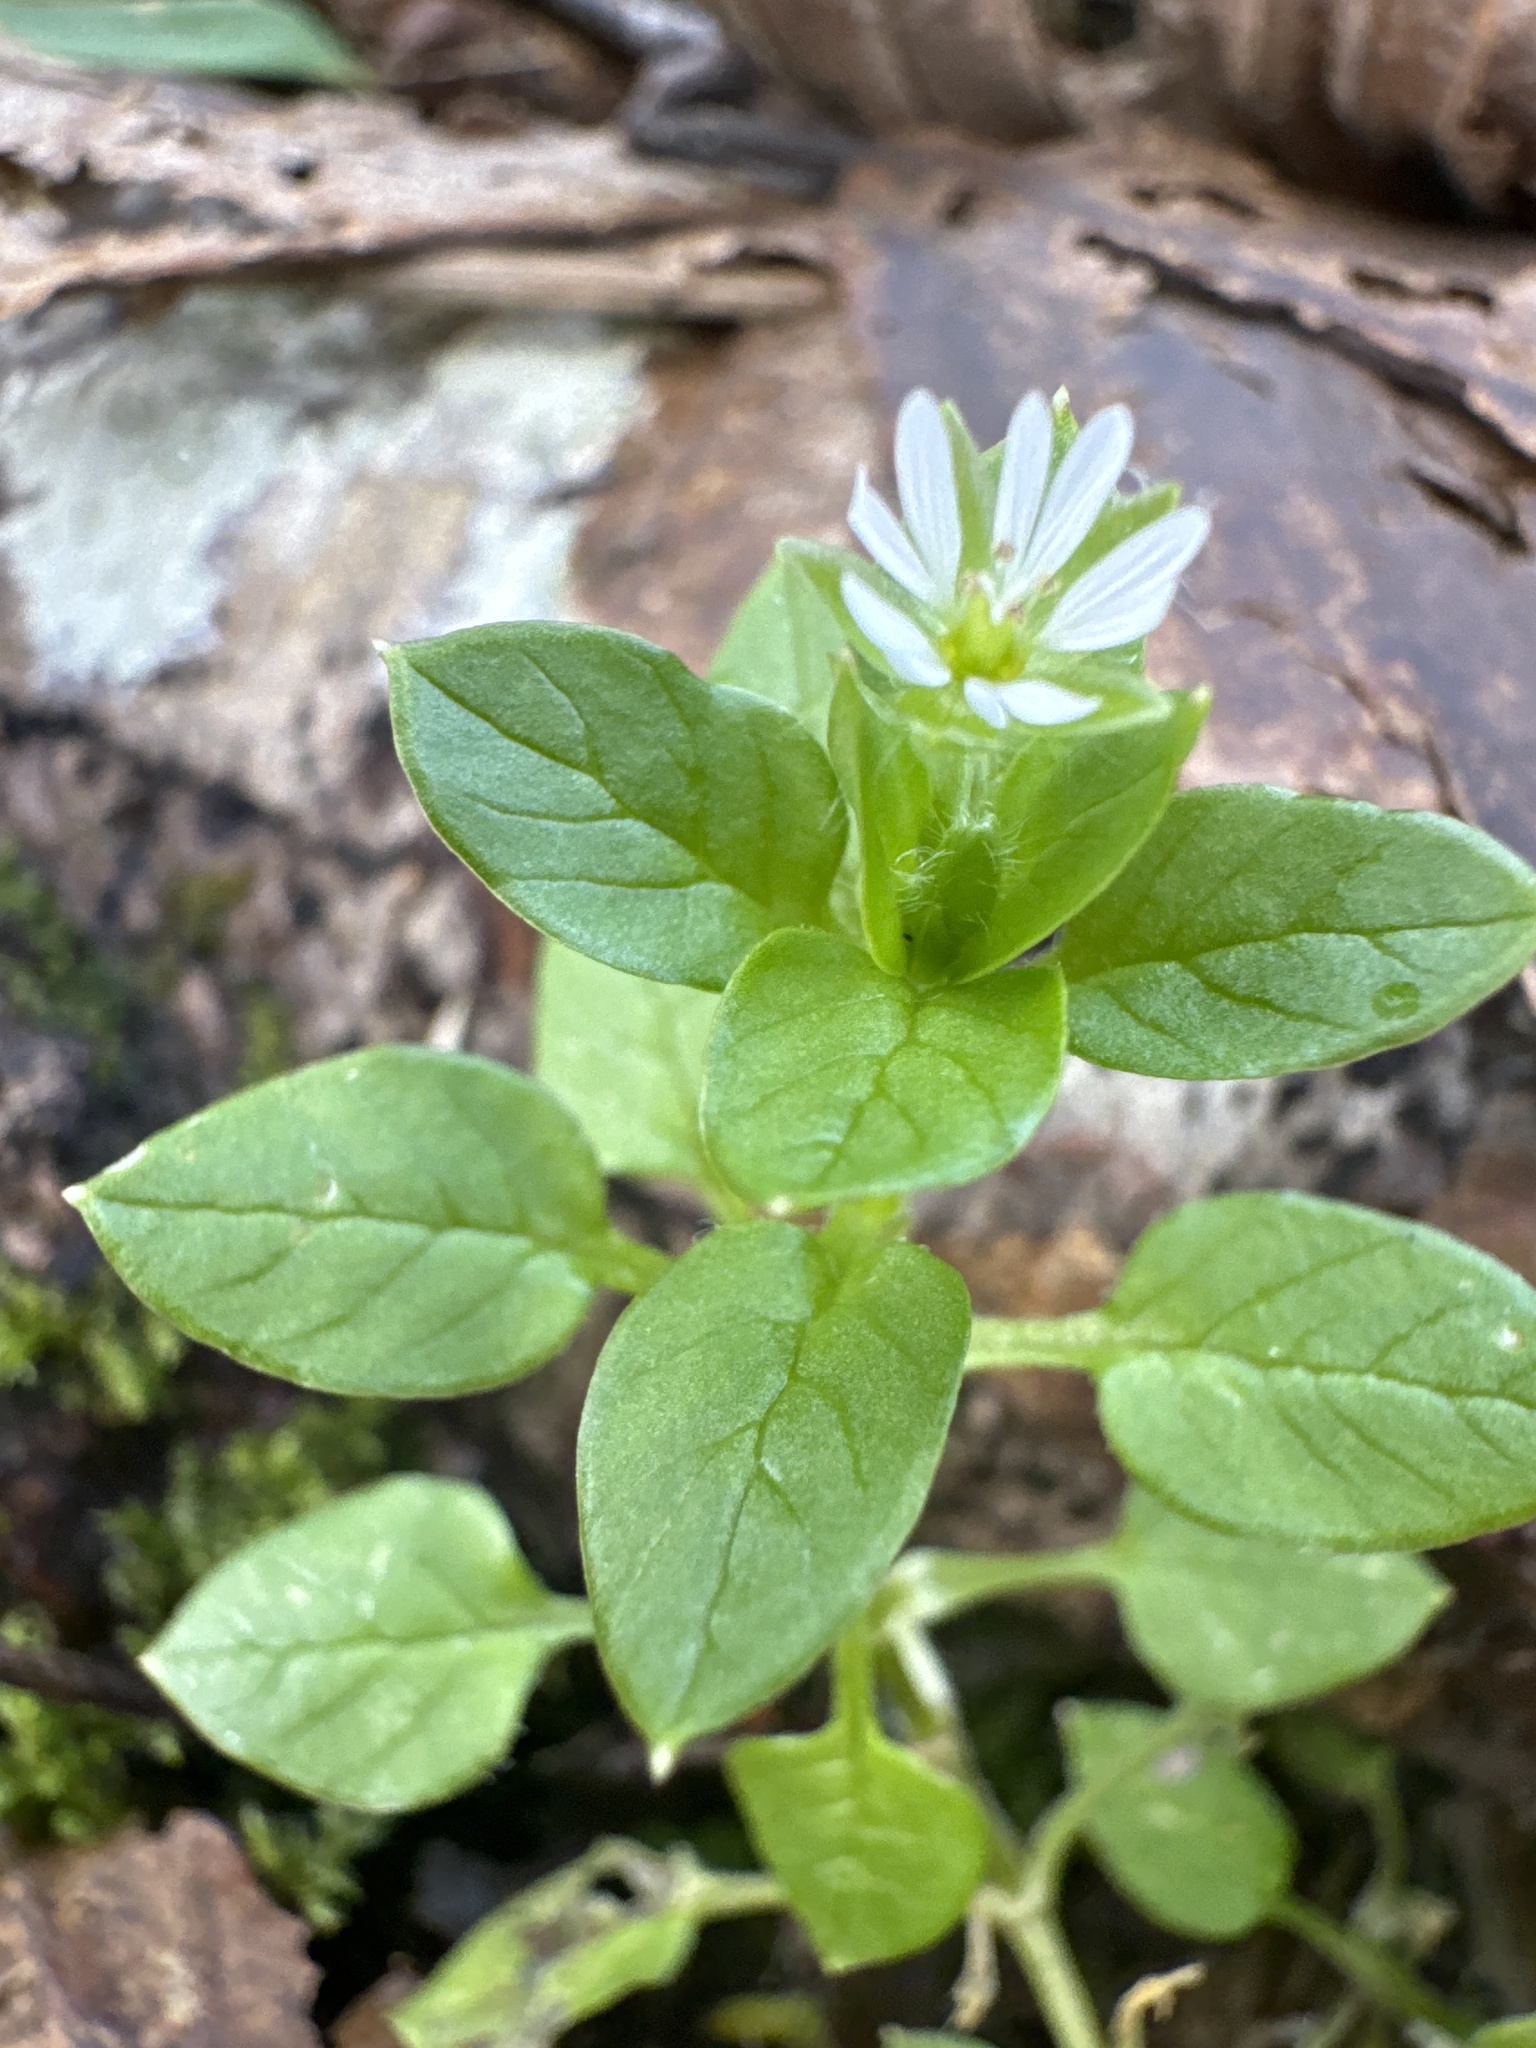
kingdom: Plantae
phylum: Tracheophyta
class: Magnoliopsida
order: Caryophyllales
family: Caryophyllaceae
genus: Stellaria
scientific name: Stellaria media
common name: Common chickweed
